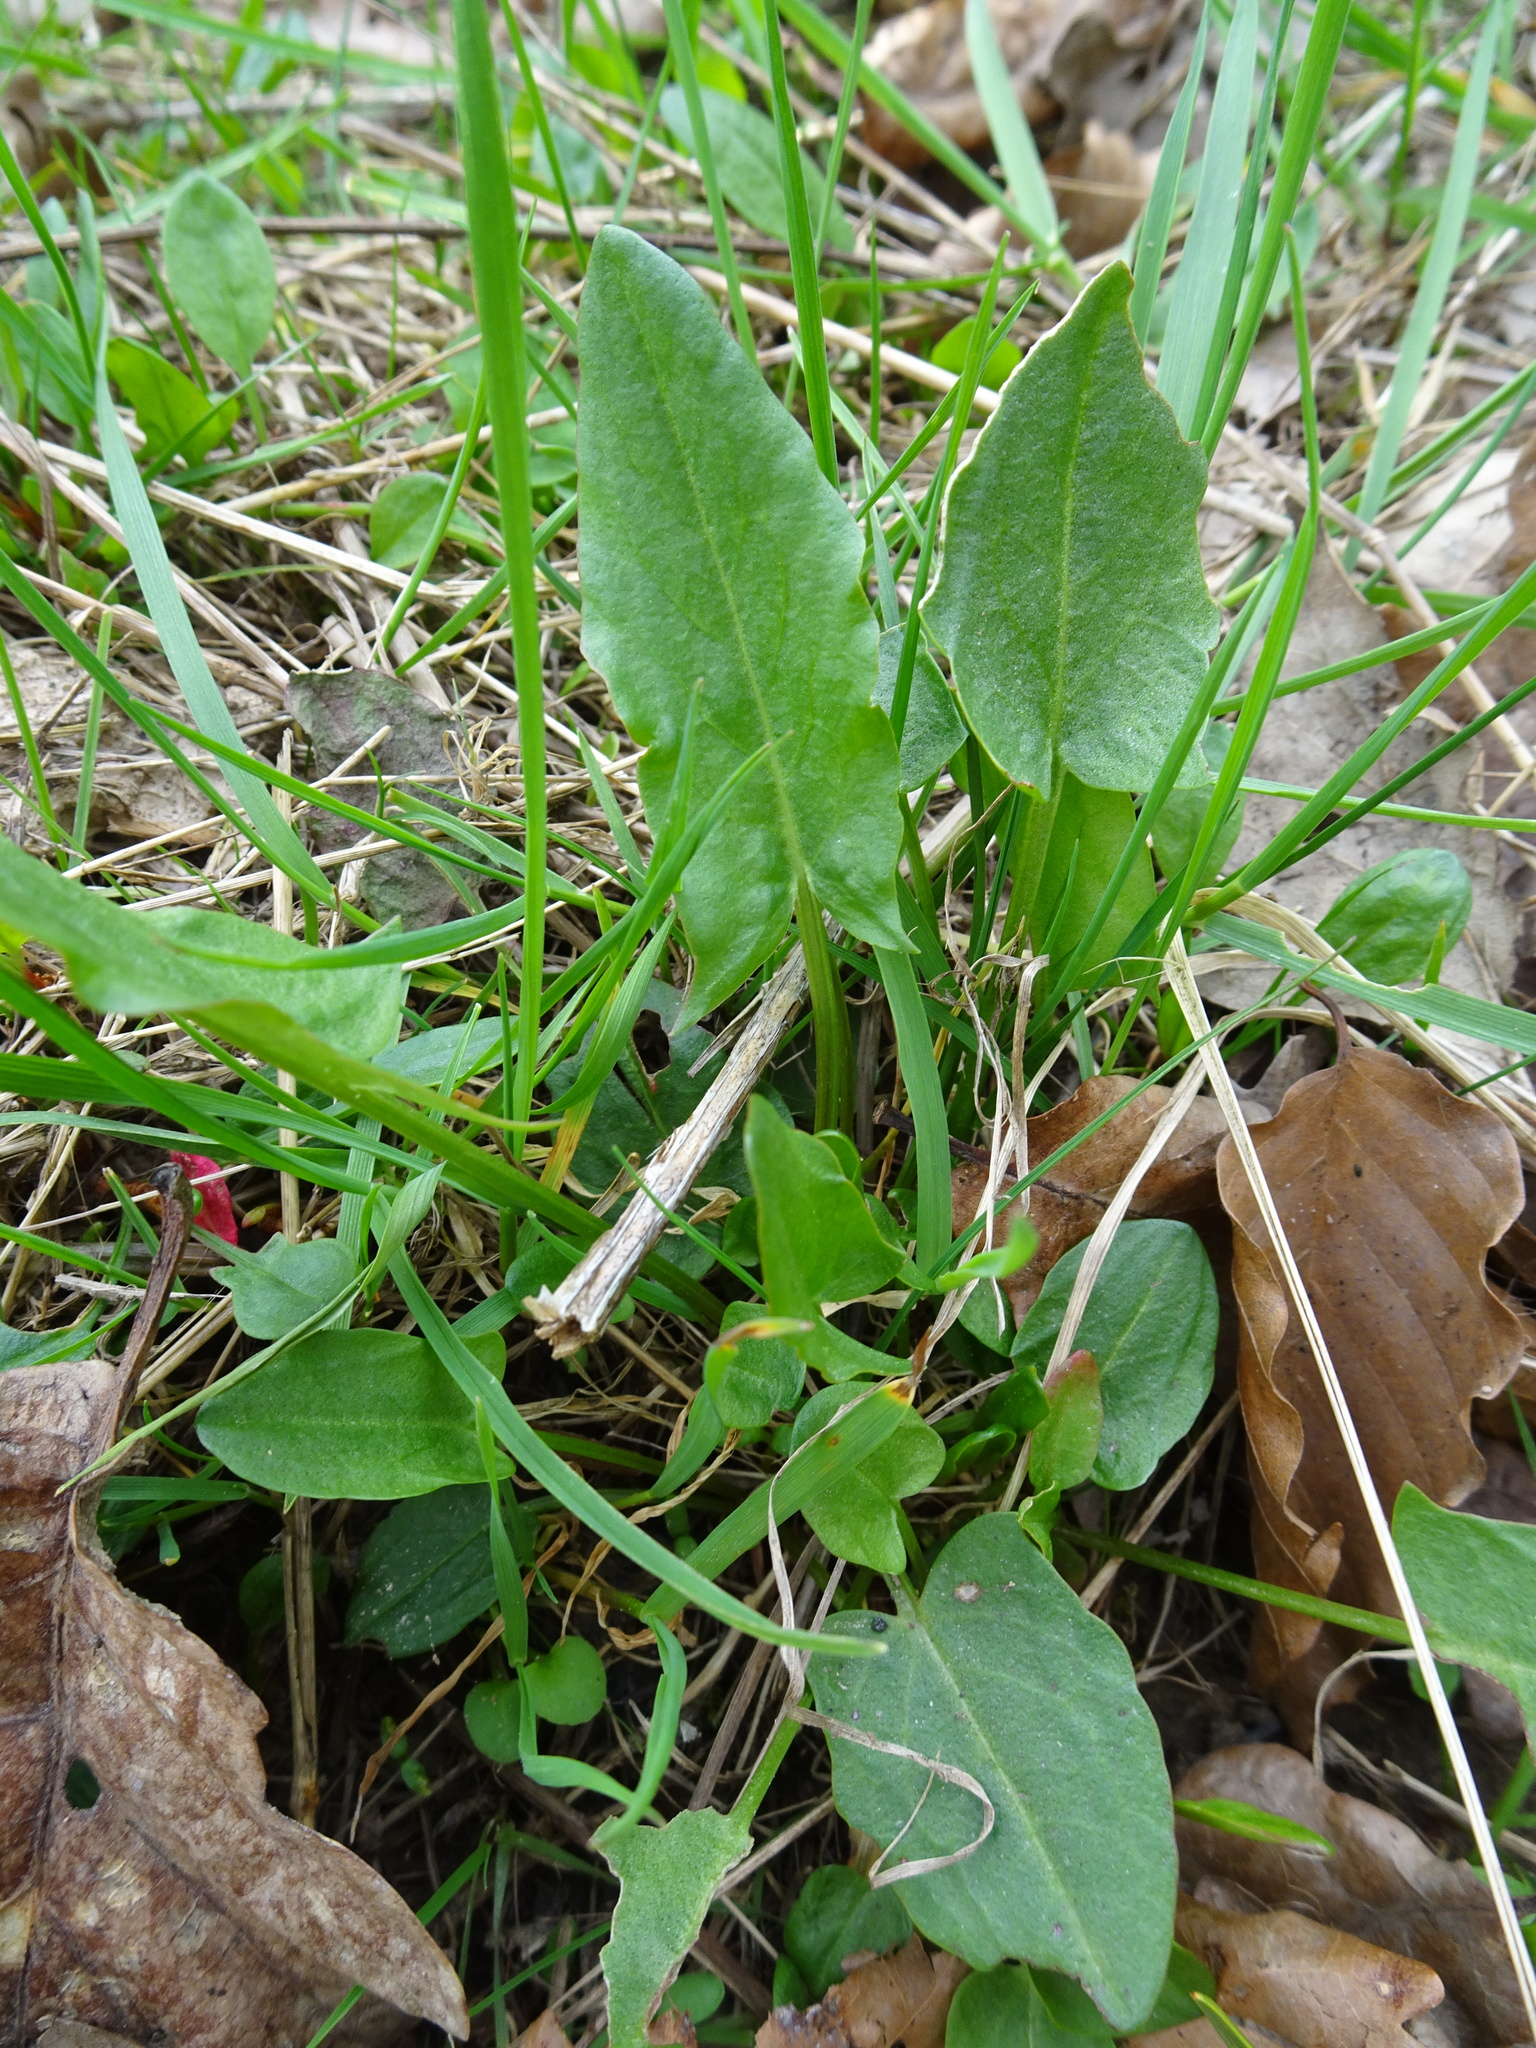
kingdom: Plantae
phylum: Tracheophyta
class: Magnoliopsida
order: Caryophyllales
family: Polygonaceae
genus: Rumex
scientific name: Rumex acetosa
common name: Garden sorrel
